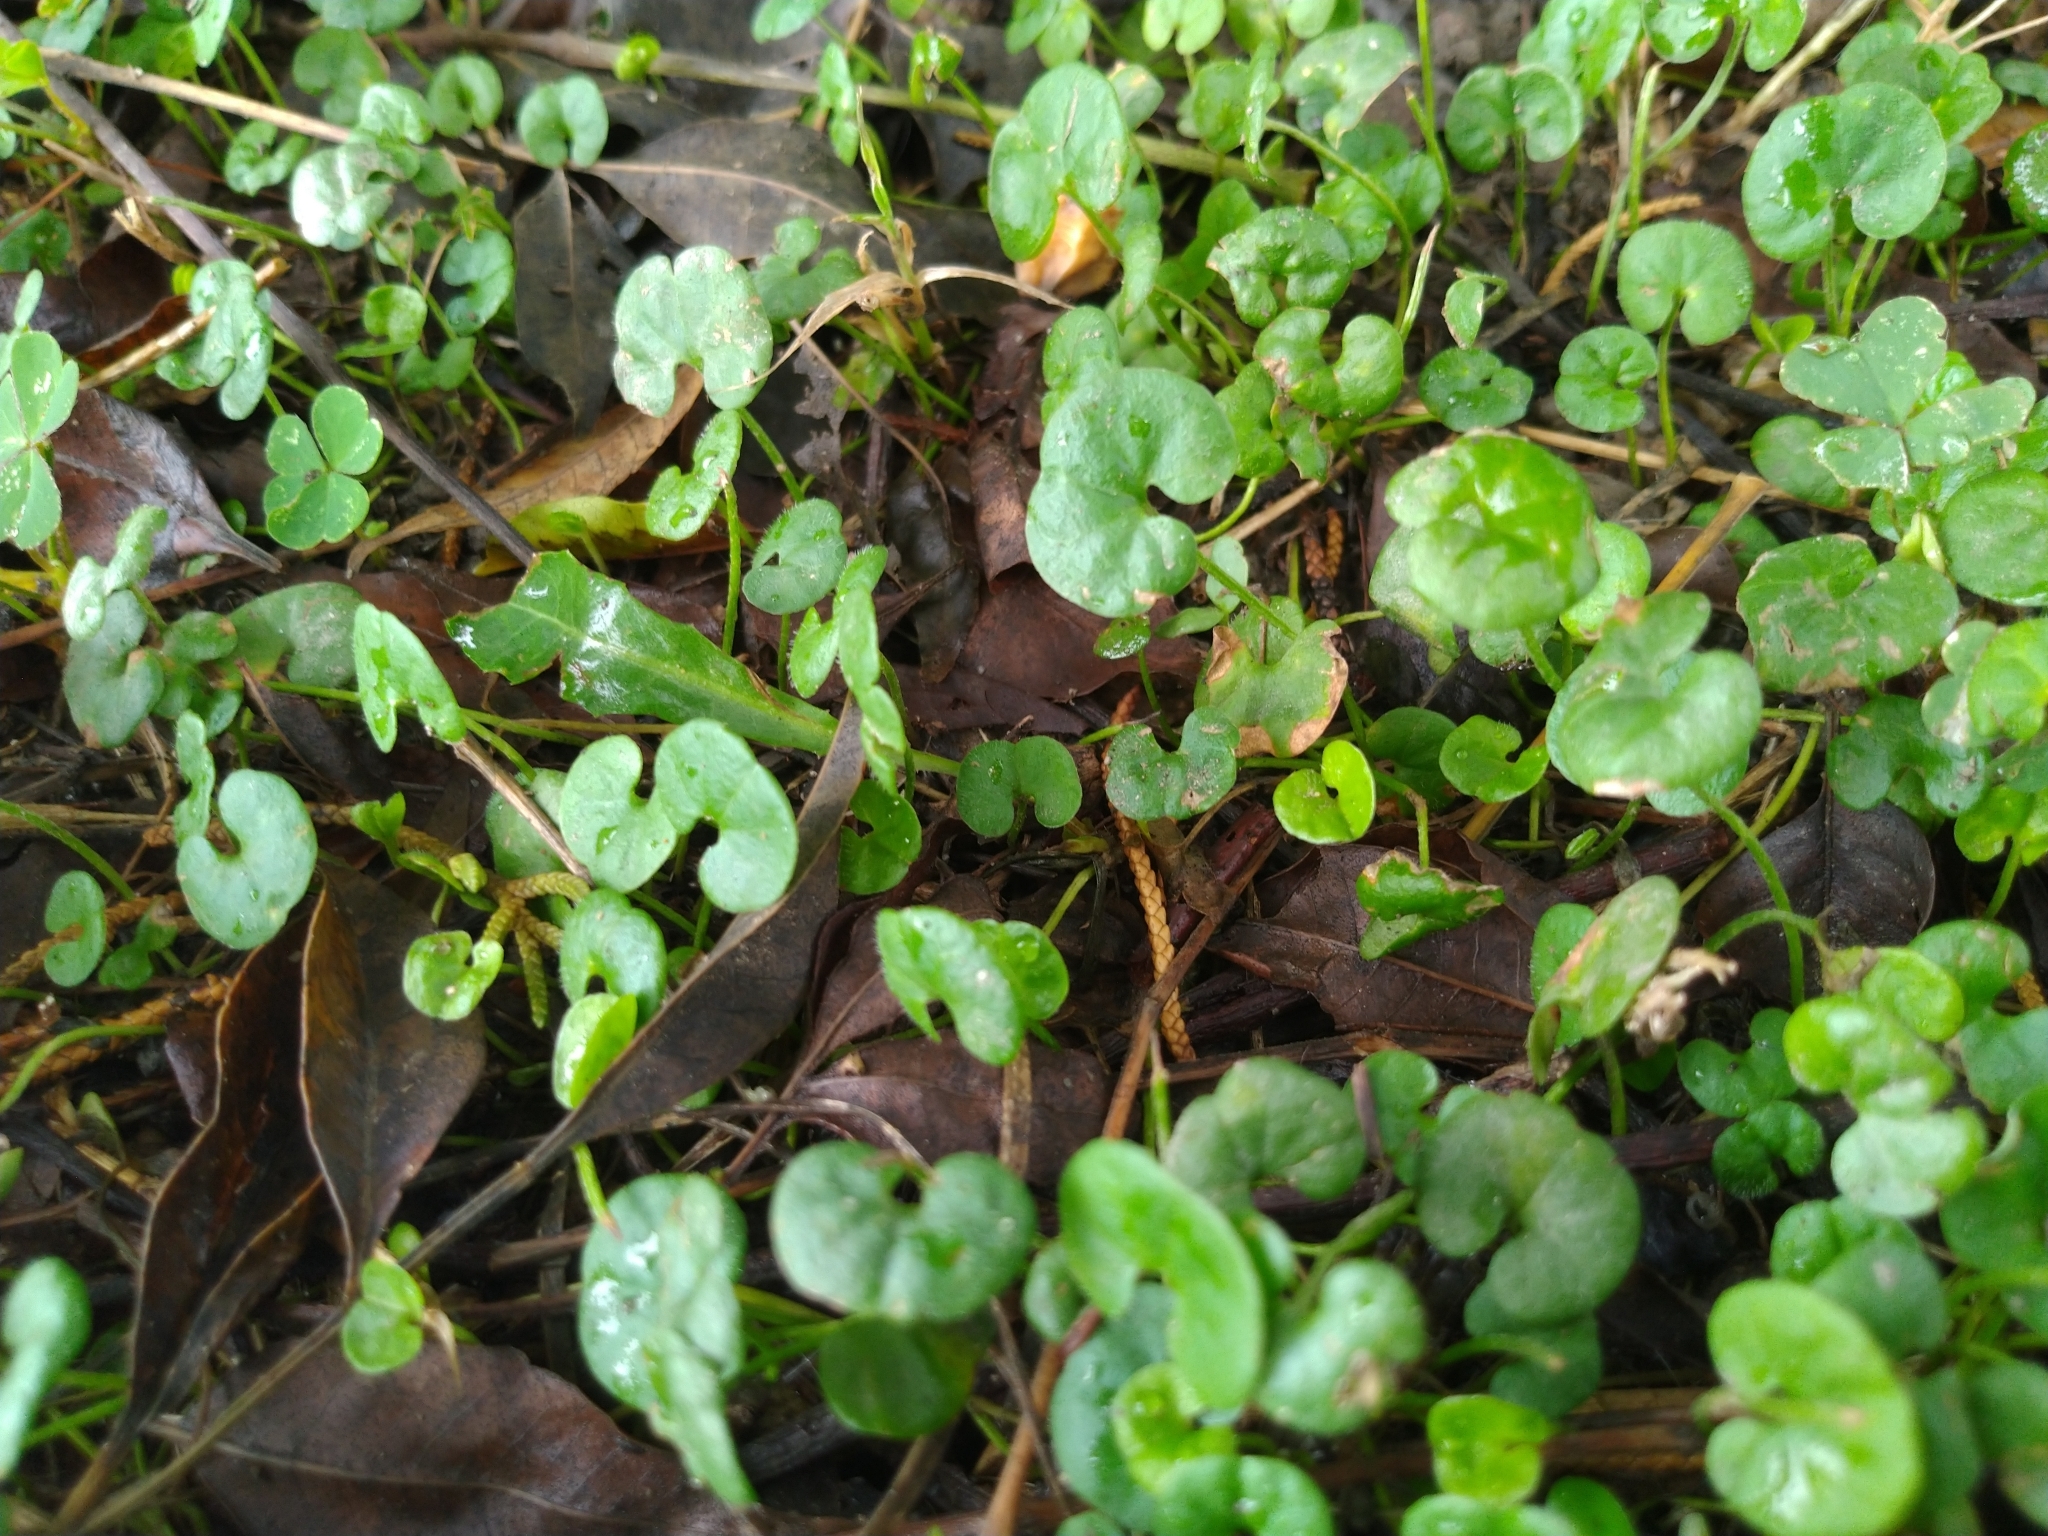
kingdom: Plantae
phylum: Tracheophyta
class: Magnoliopsida
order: Solanales
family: Convolvulaceae
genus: Dichondra
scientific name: Dichondra micrantha
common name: Kidneyweed
